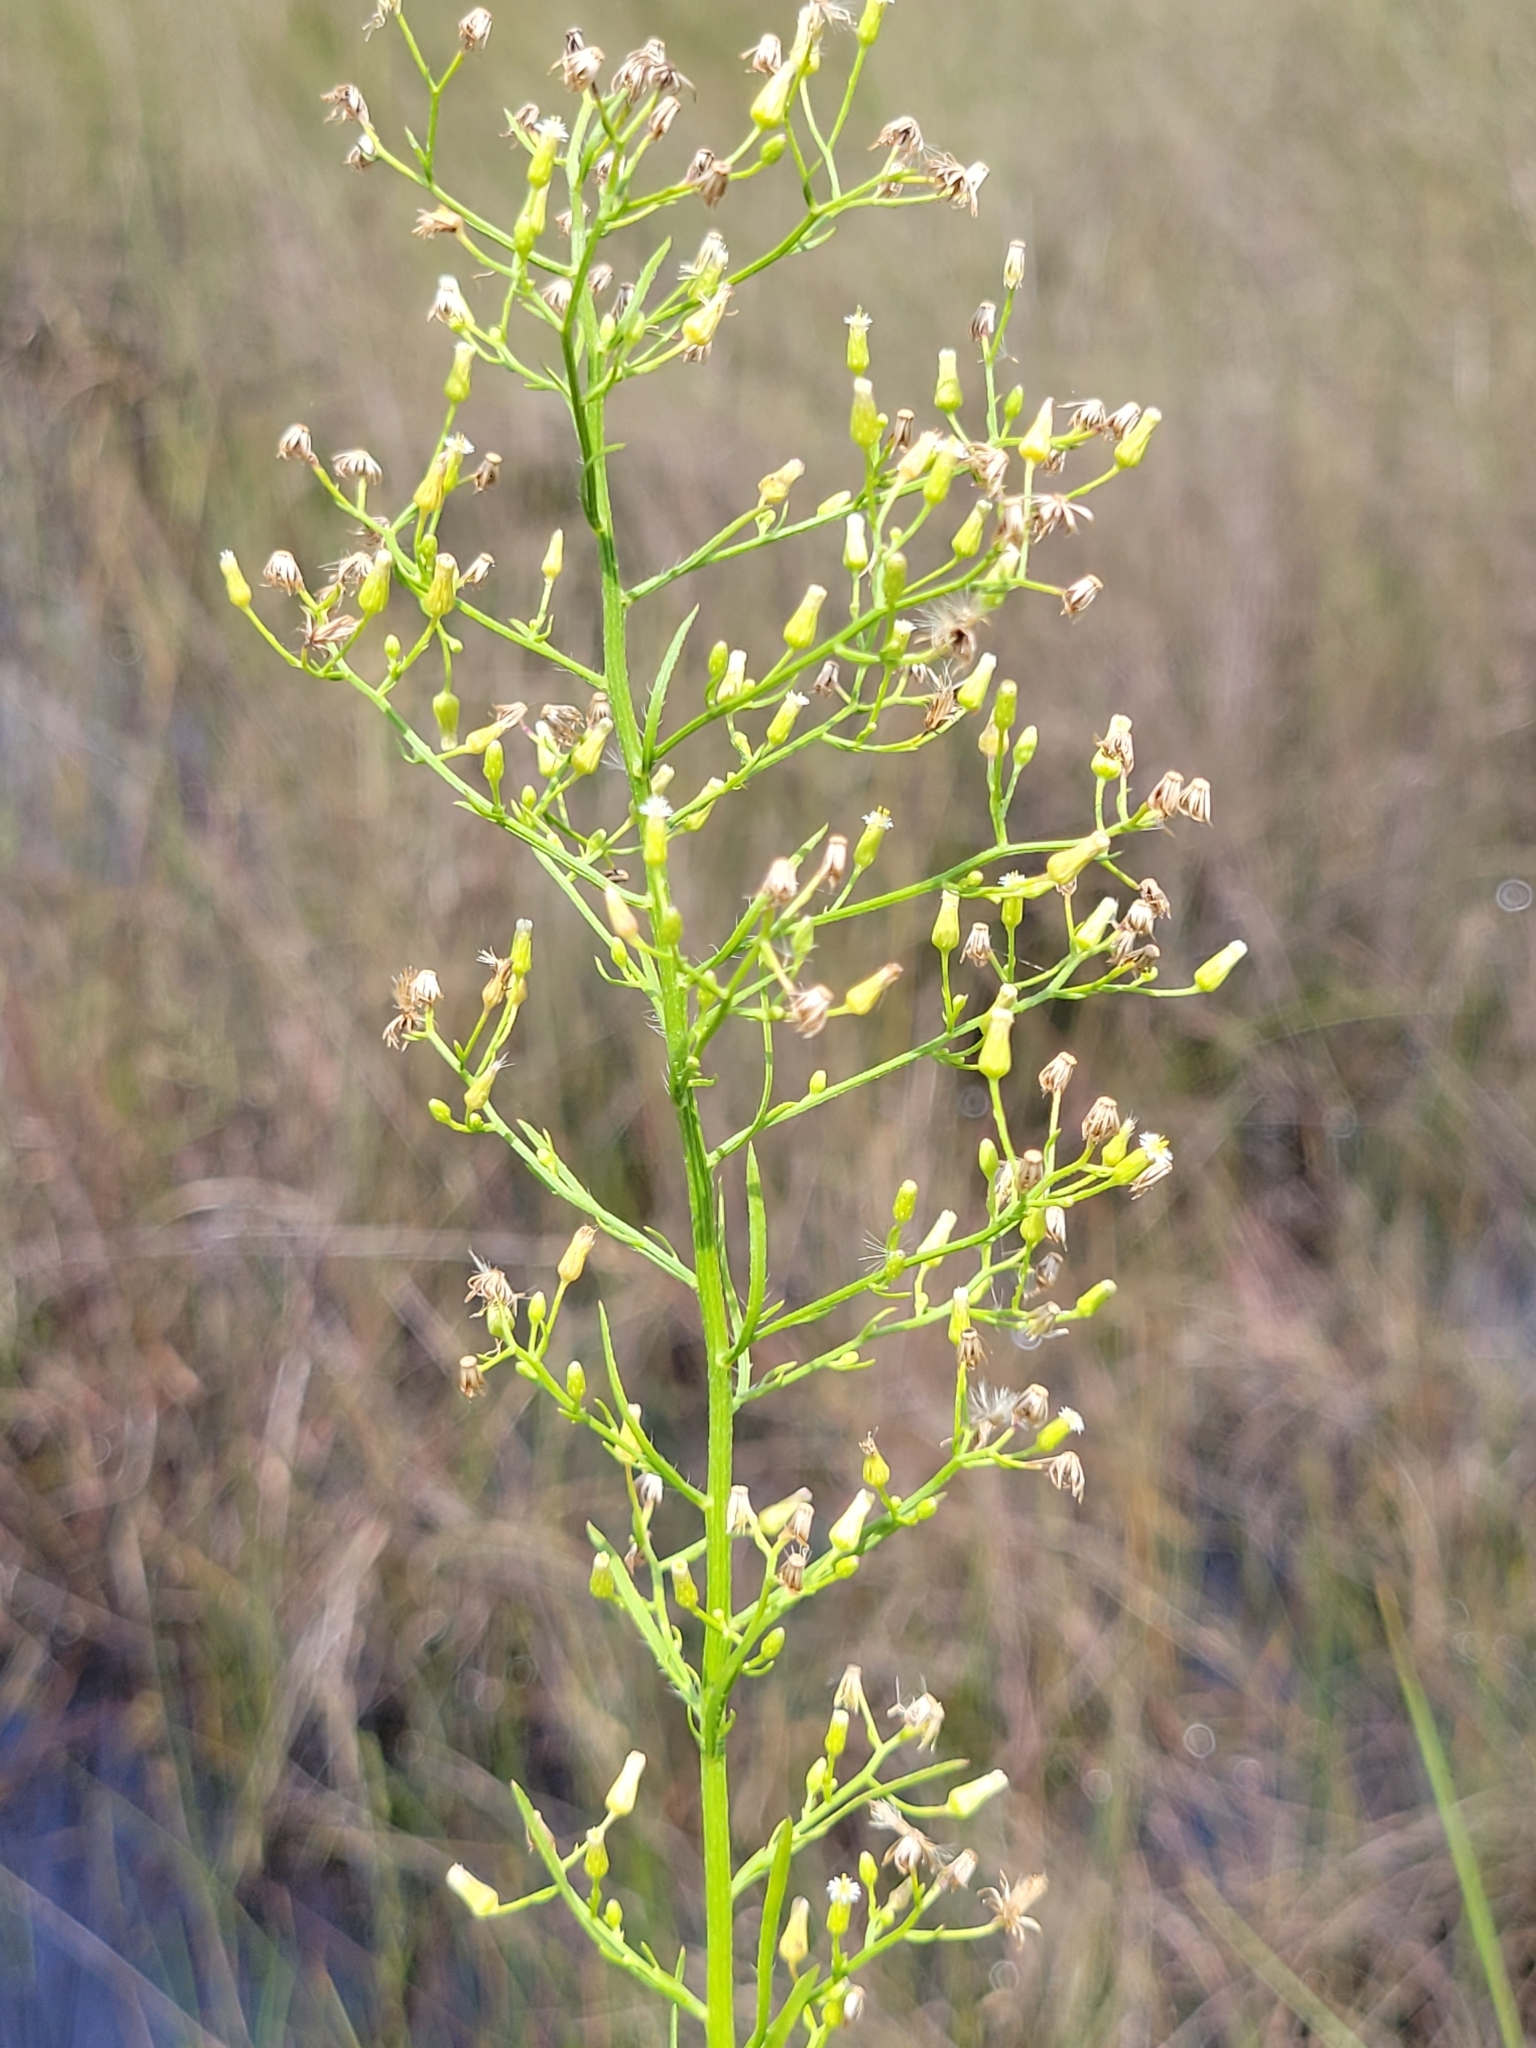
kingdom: Plantae
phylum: Tracheophyta
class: Magnoliopsida
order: Asterales
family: Asteraceae
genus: Erigeron
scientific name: Erigeron canadensis
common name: Canadian fleabane
